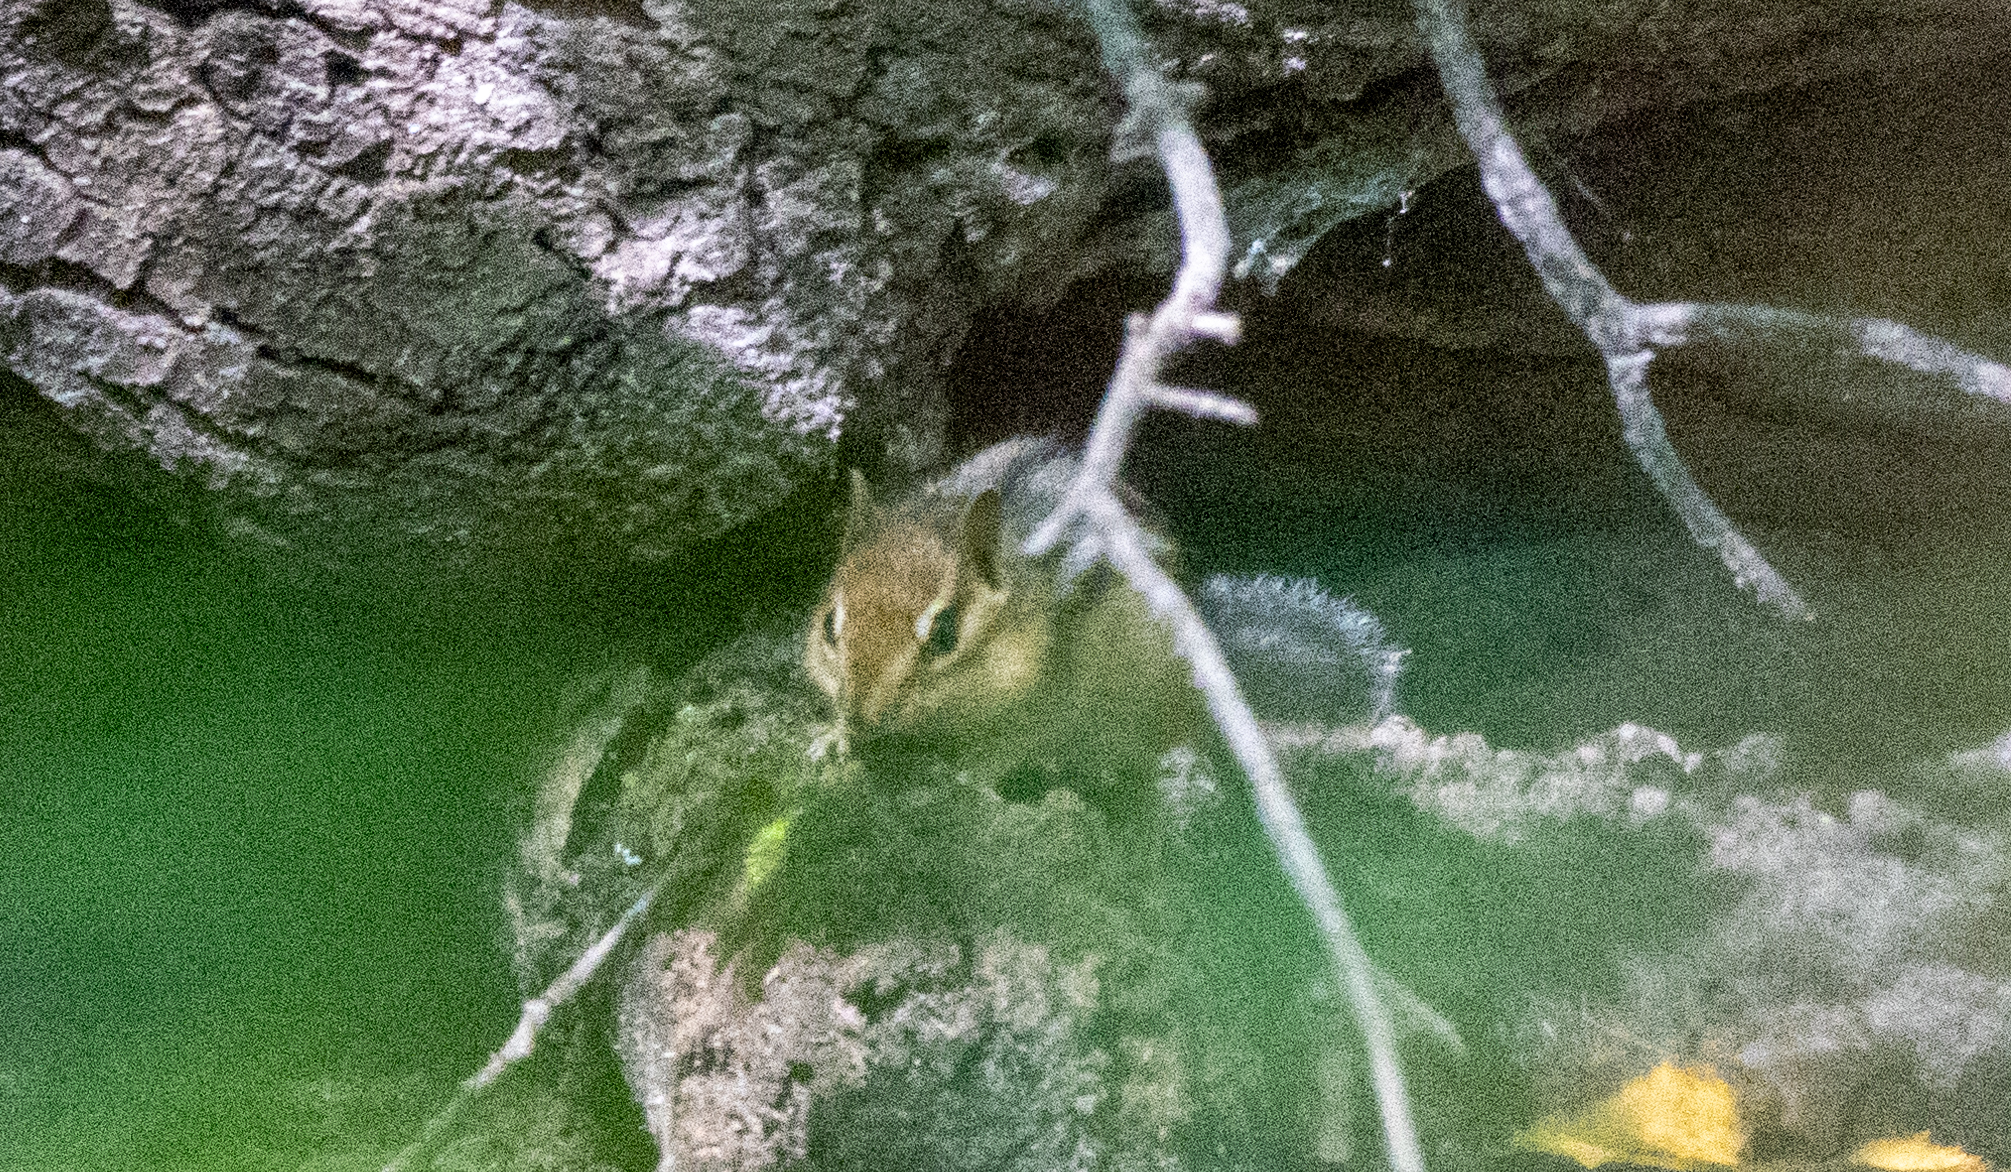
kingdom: Animalia
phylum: Chordata
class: Mammalia
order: Rodentia
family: Sciuridae
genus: Tamias
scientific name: Tamias striatus
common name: Eastern chipmunk
